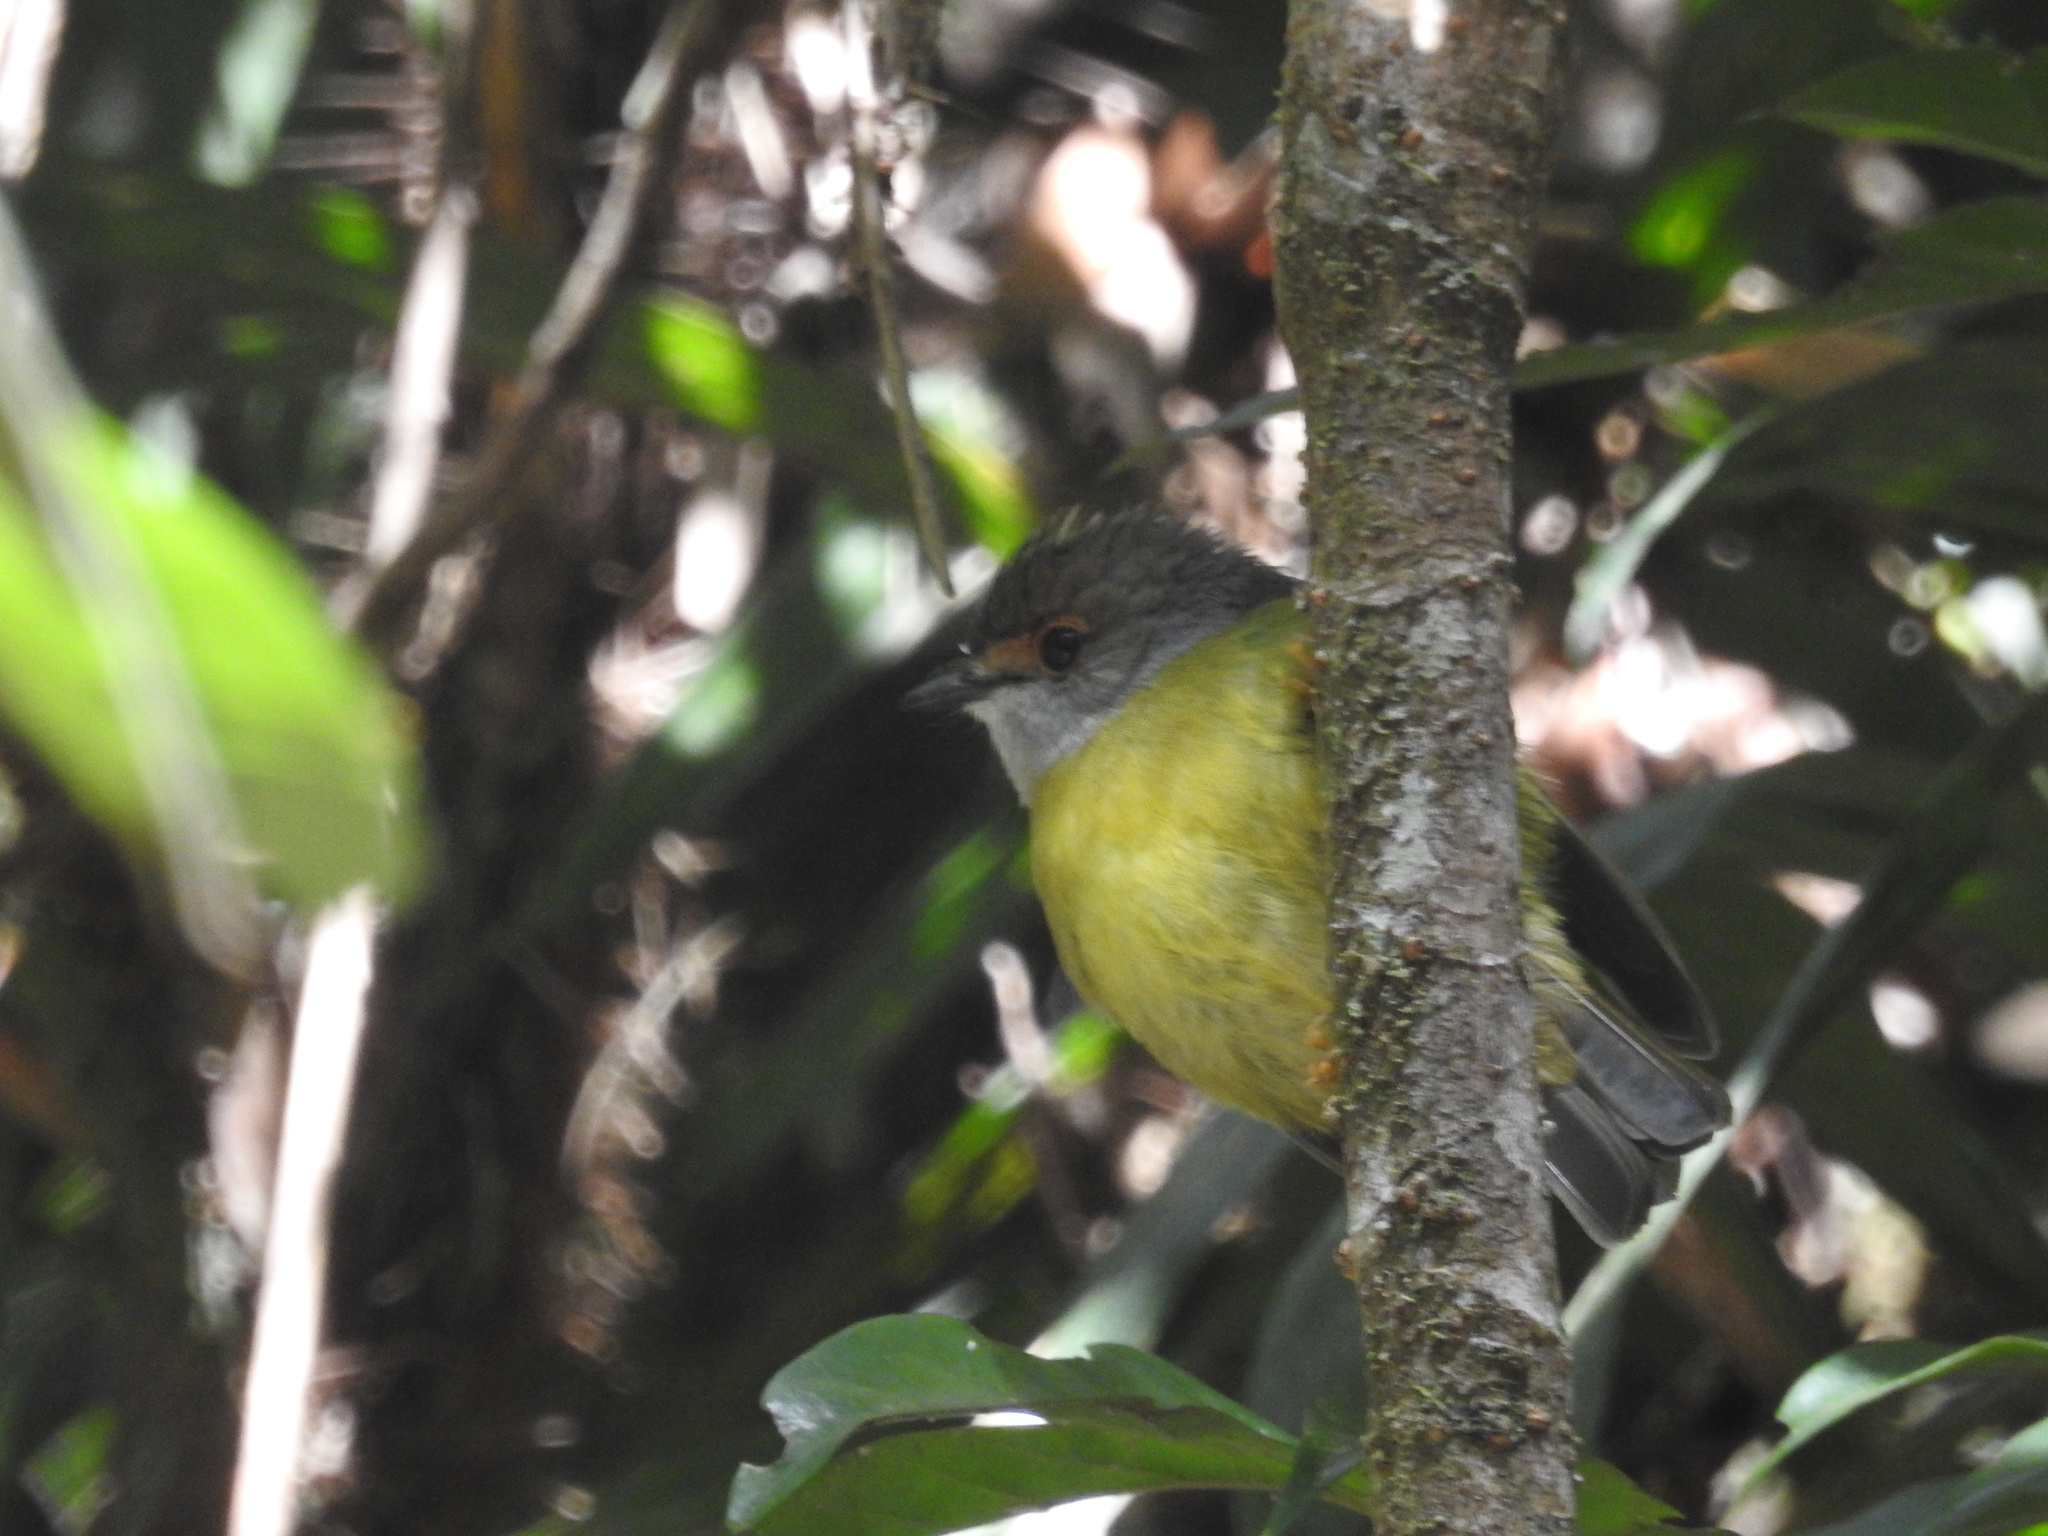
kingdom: Animalia
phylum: Chordata
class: Aves
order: Passeriformes
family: Petroicidae
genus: Eopsaltria
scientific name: Eopsaltria
